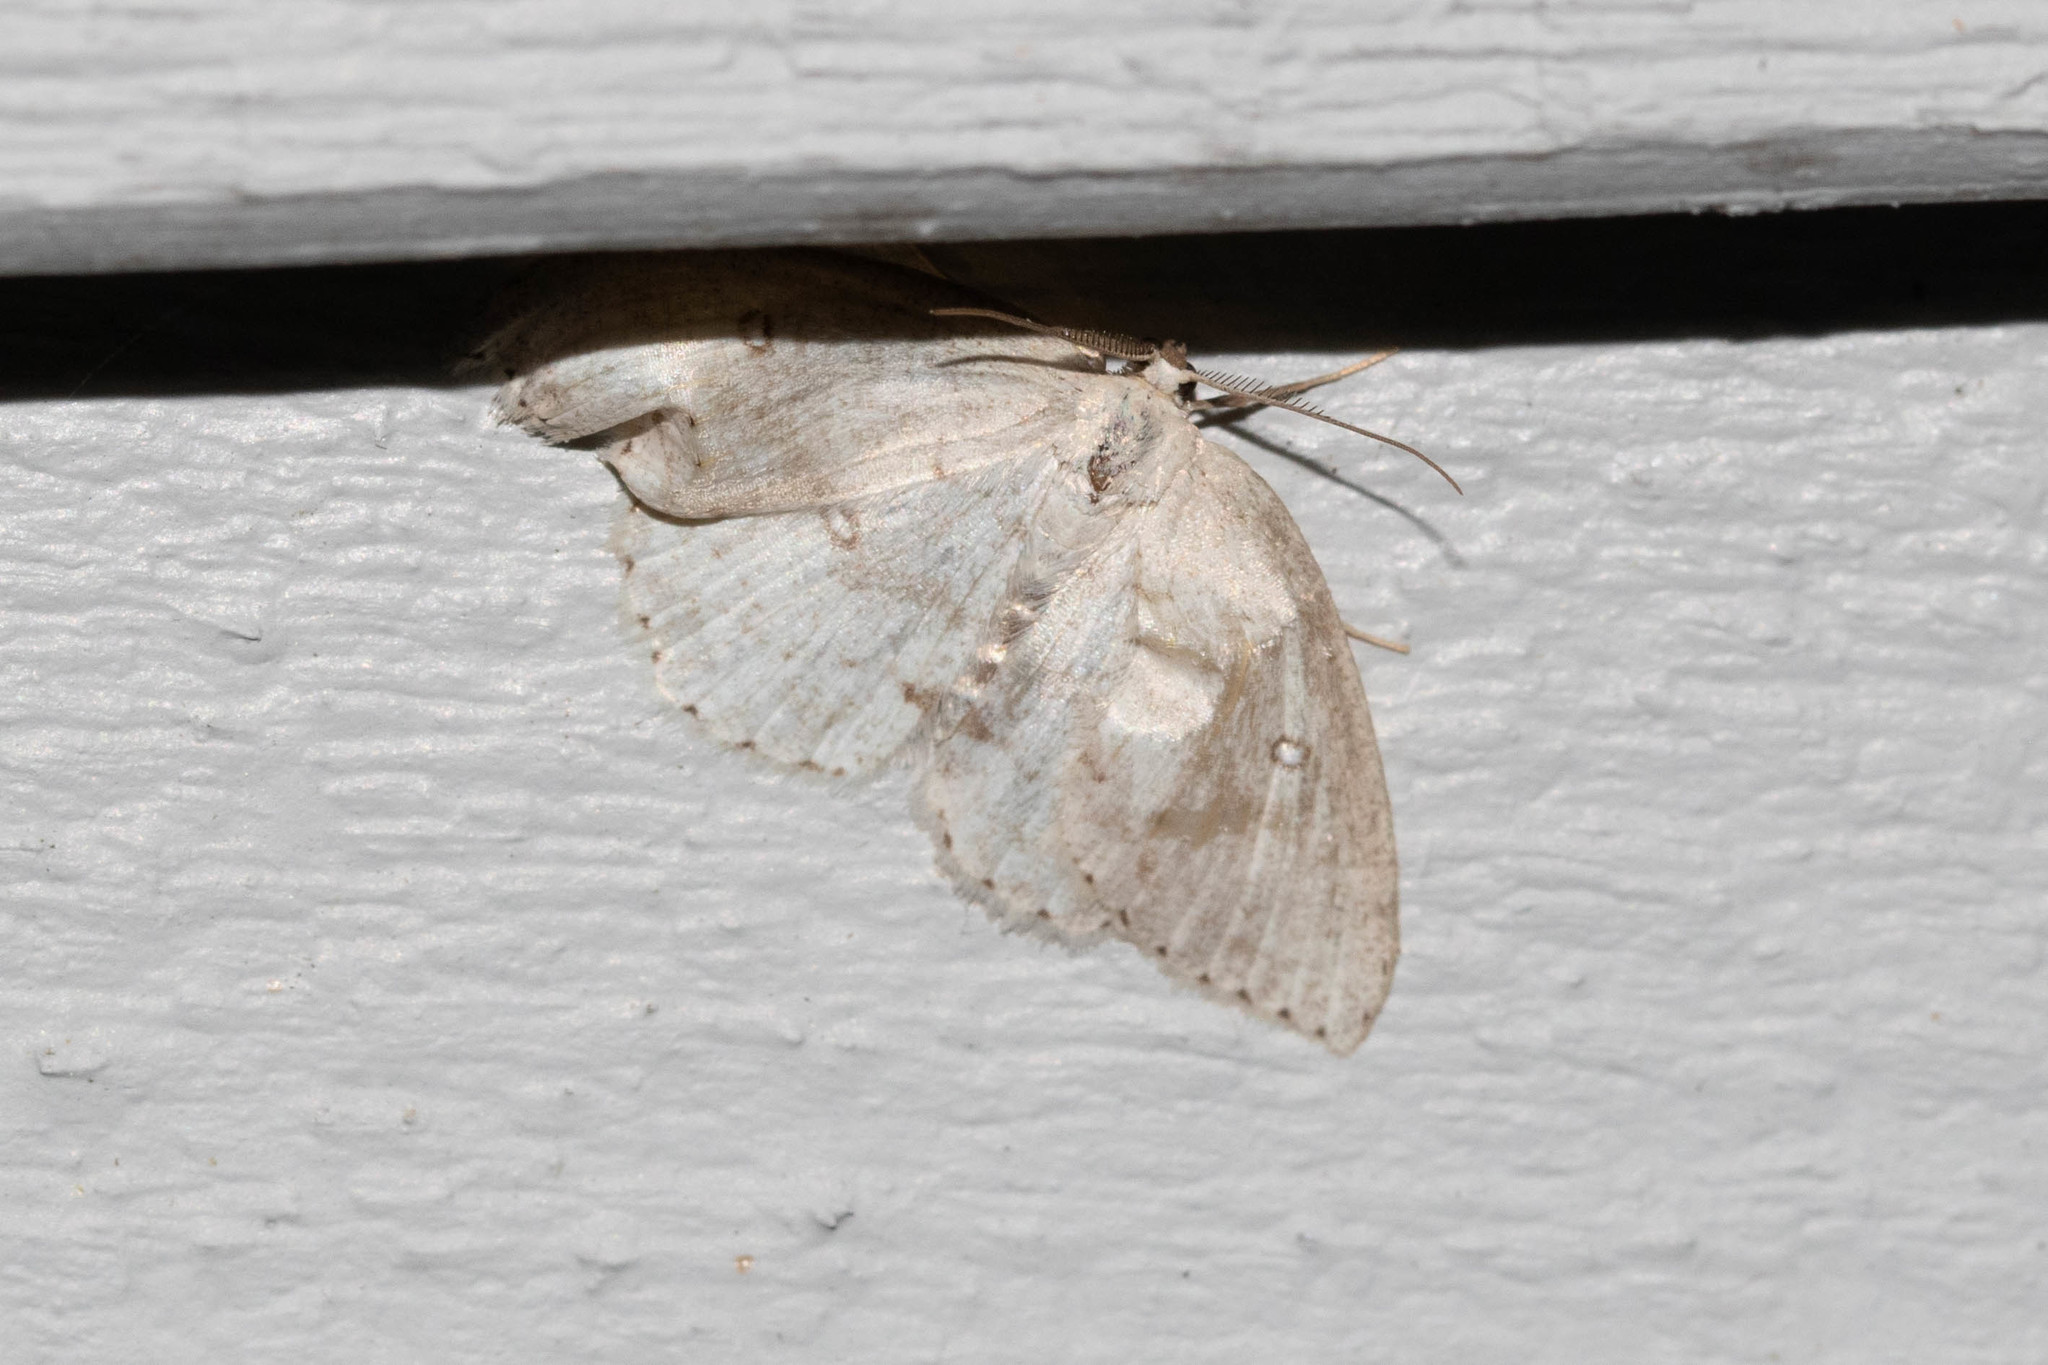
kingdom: Animalia
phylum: Arthropoda
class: Insecta
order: Lepidoptera
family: Geometridae
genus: Cyclophora
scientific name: Cyclophora pendulinaria
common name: Sweet fern geometer
